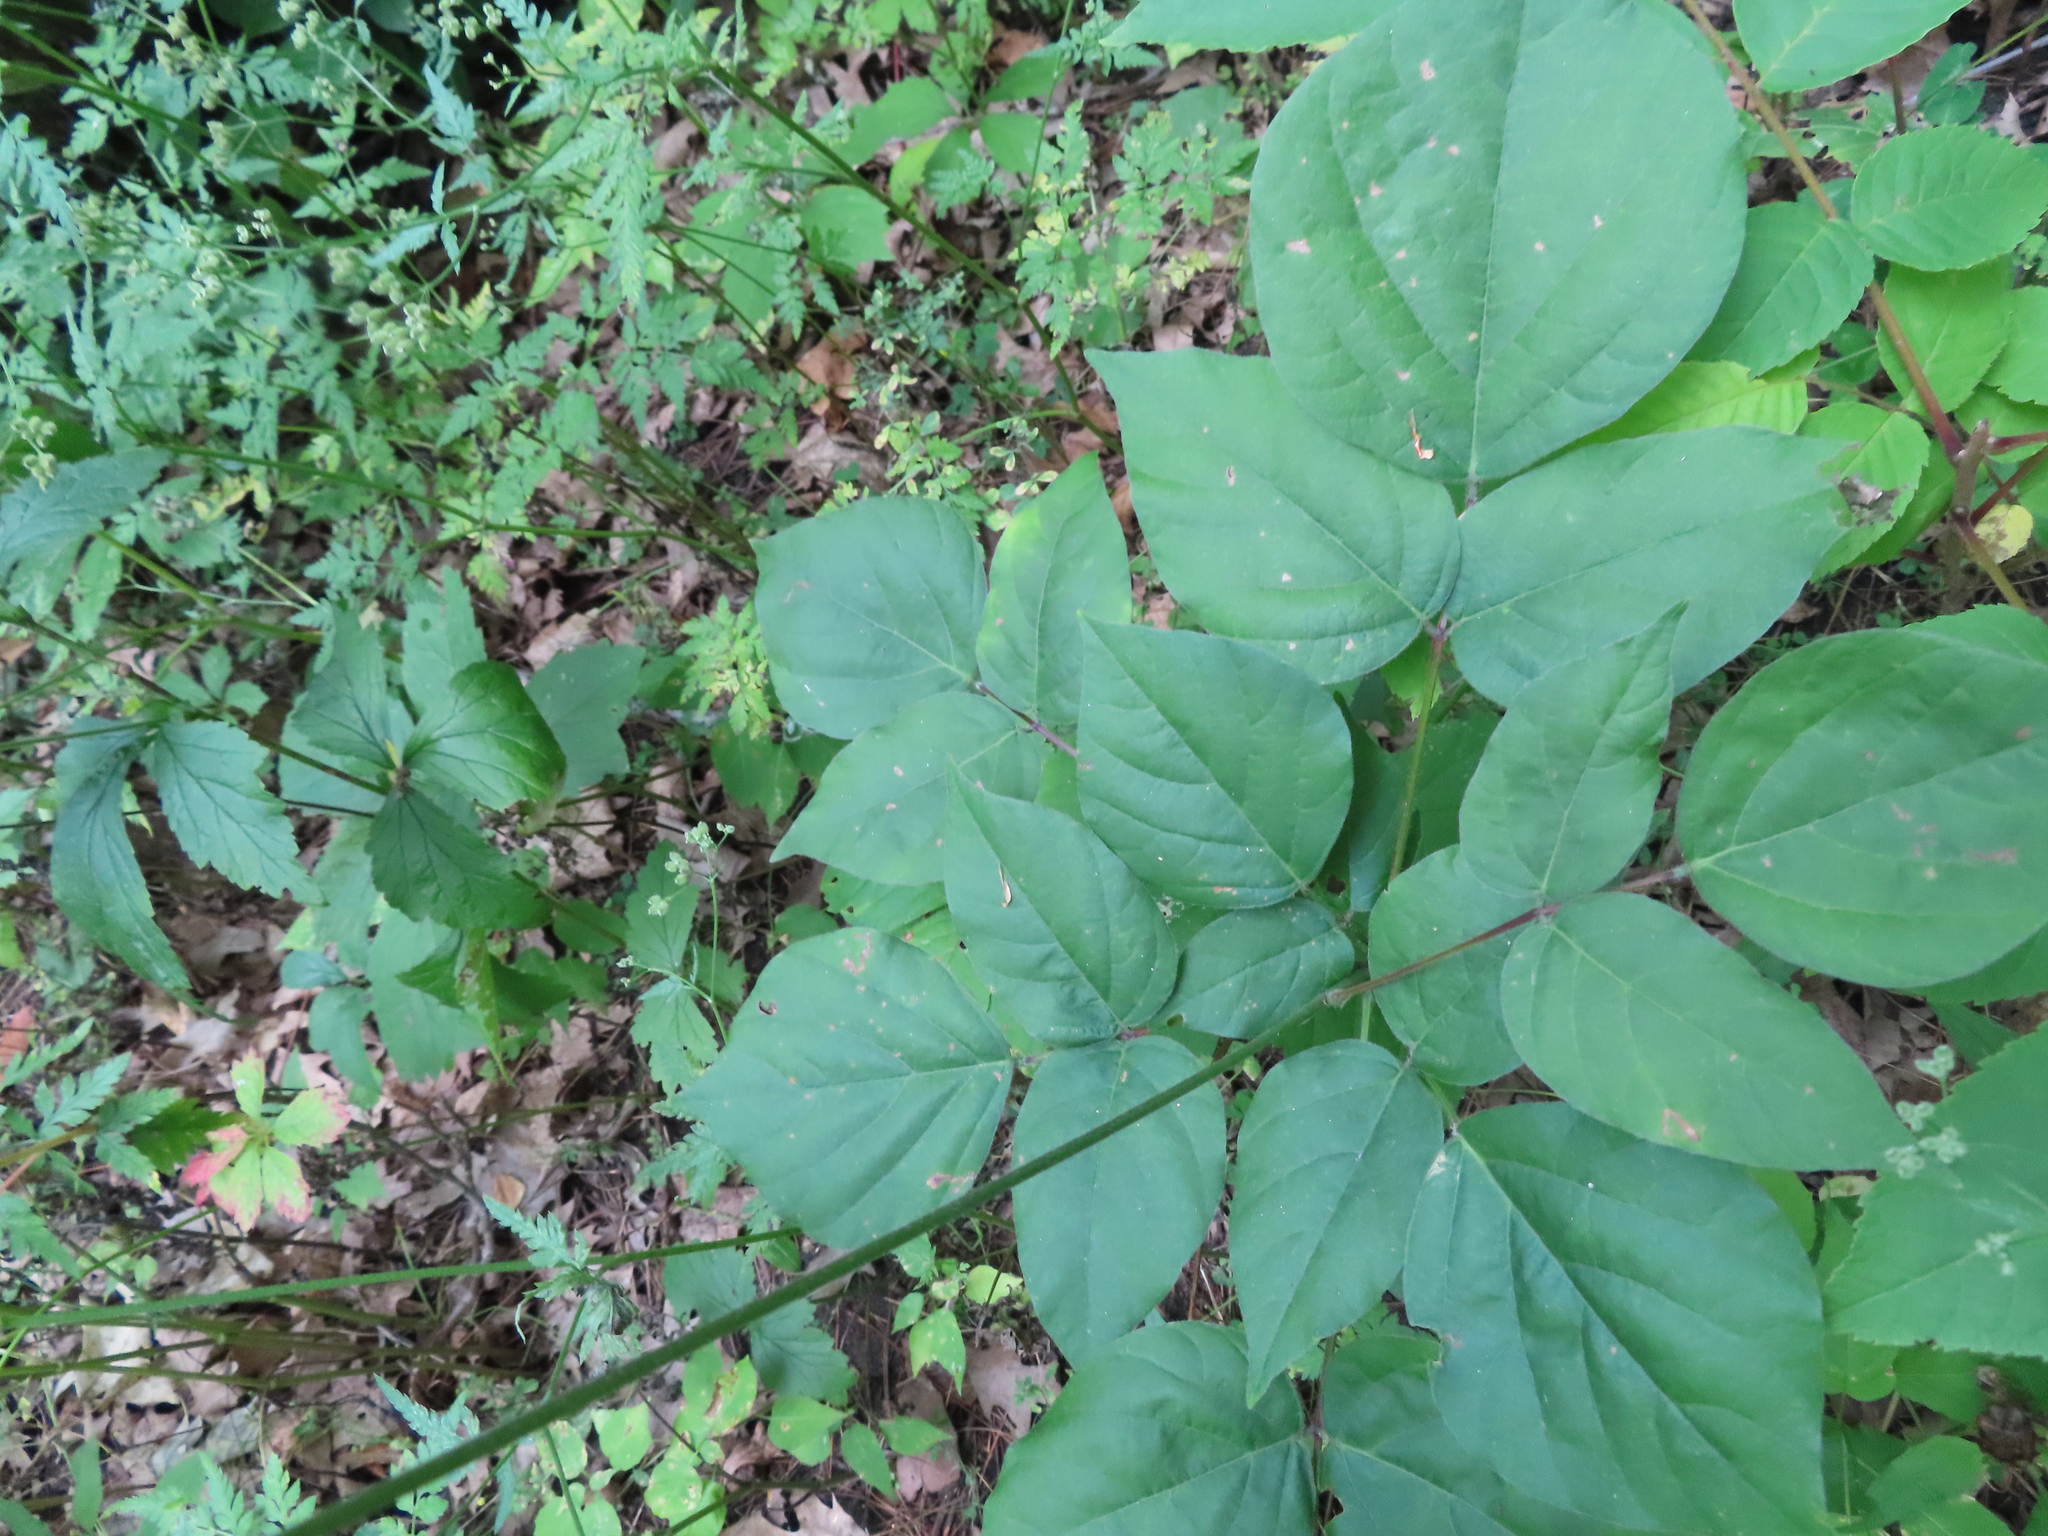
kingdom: Plantae
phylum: Tracheophyta
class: Magnoliopsida
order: Fabales
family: Fabaceae
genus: Hylodesmum
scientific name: Hylodesmum glutinosum
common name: Clustered-leaved tick-trefoil
